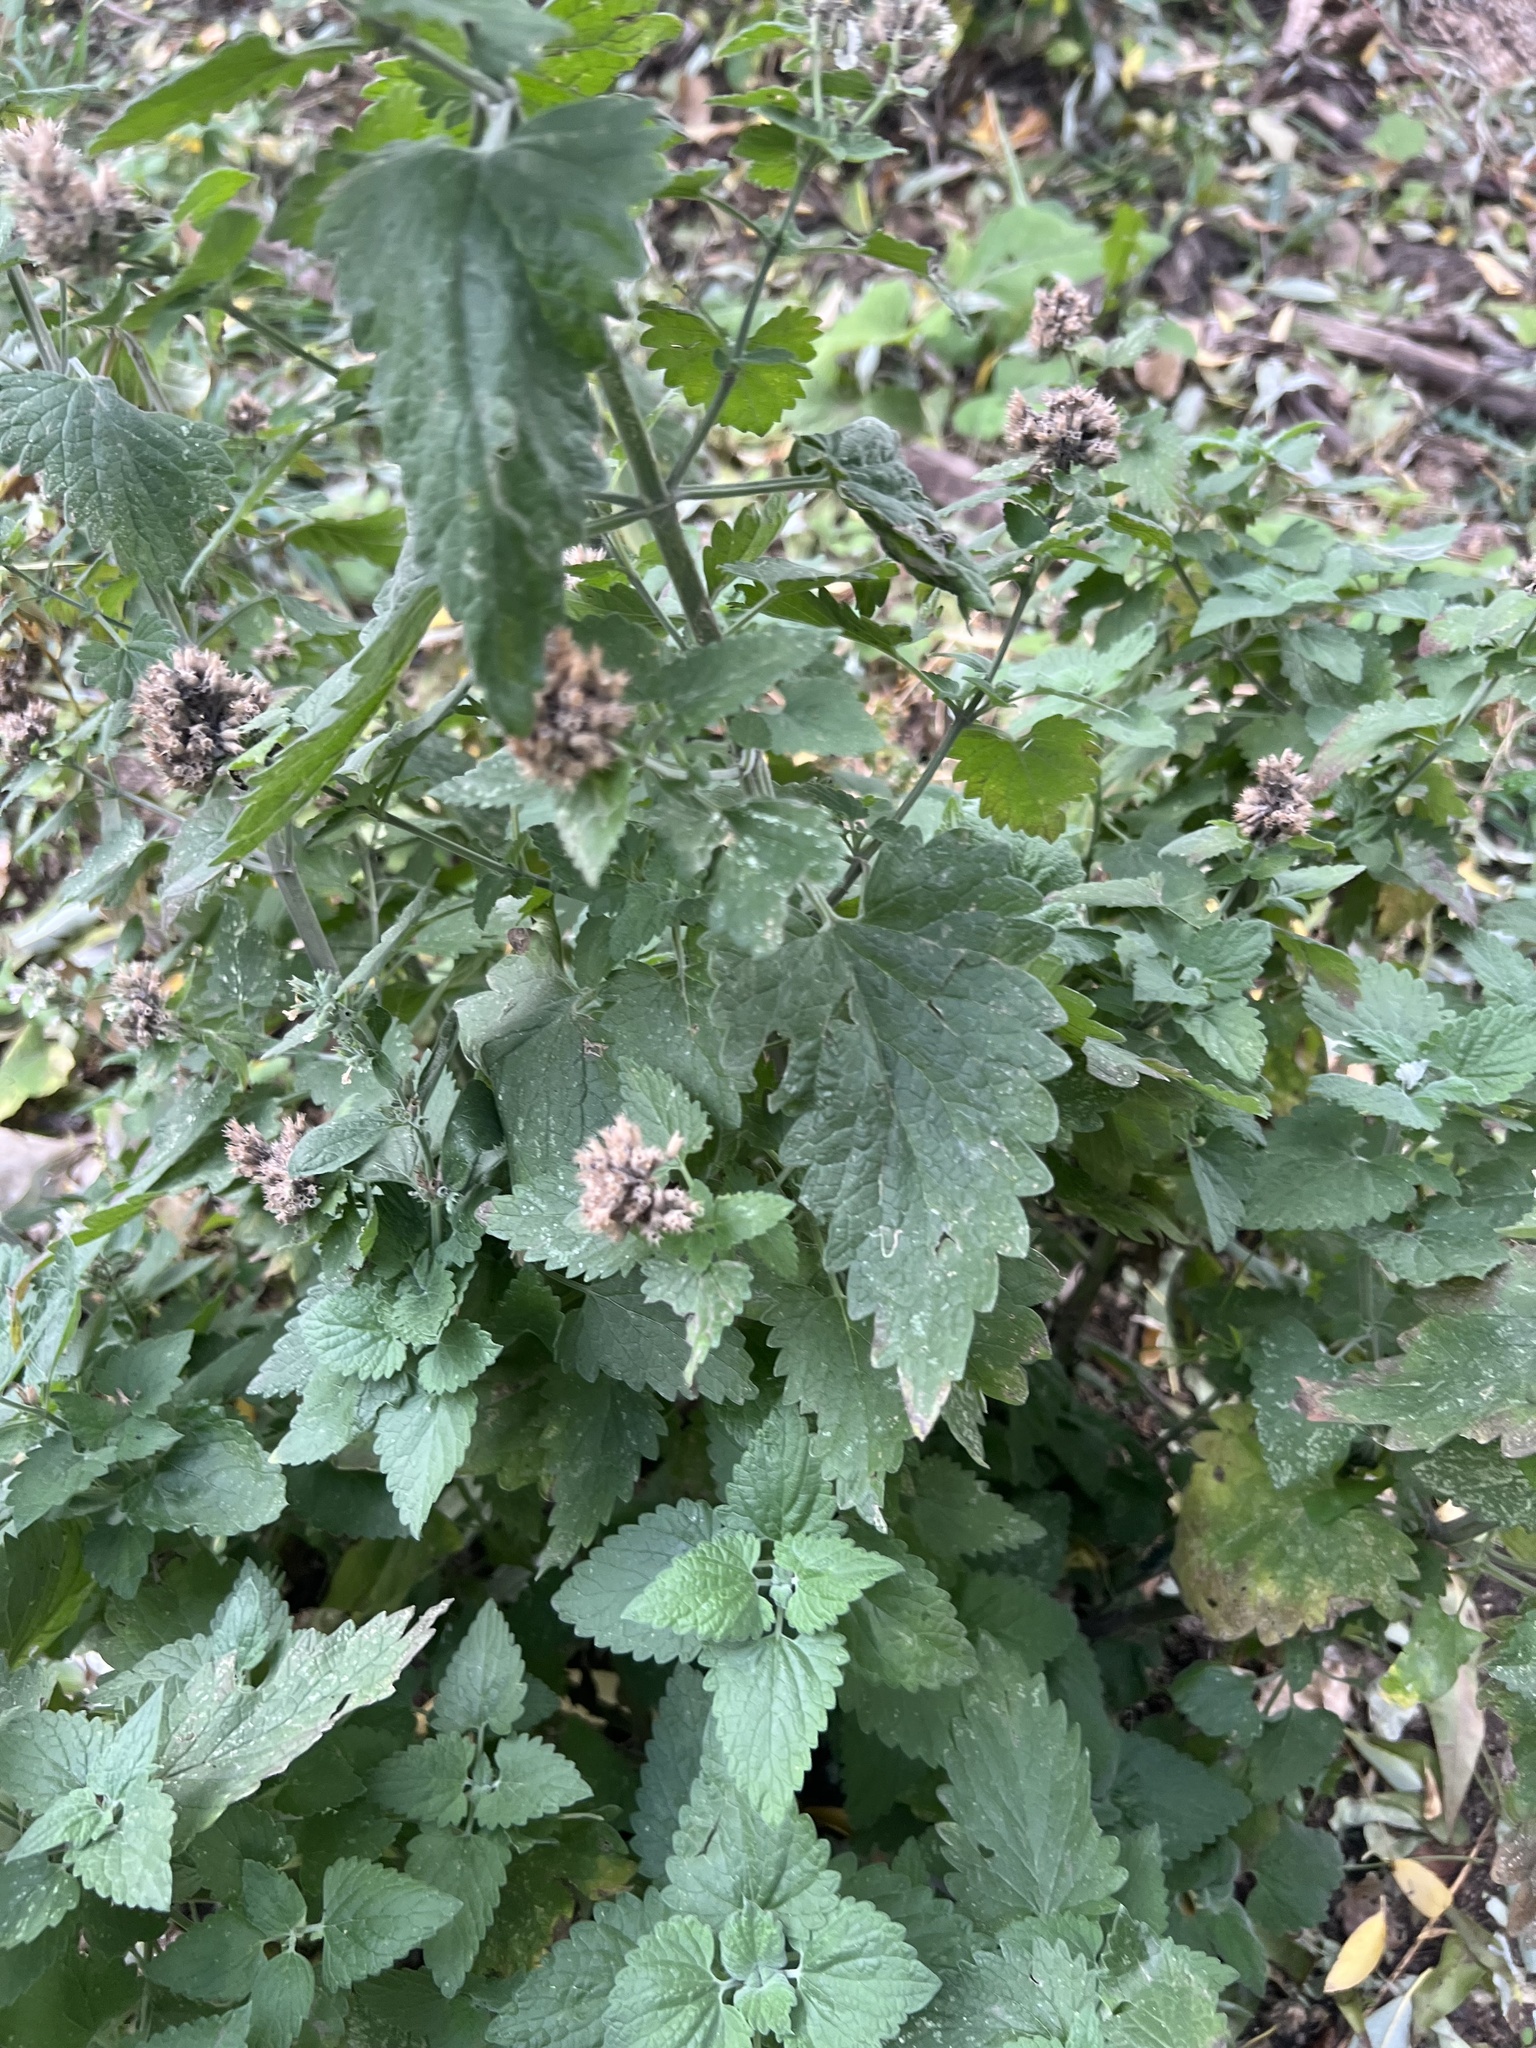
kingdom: Plantae
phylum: Tracheophyta
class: Magnoliopsida
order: Lamiales
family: Lamiaceae
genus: Nepeta
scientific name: Nepeta cataria
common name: Catnip
